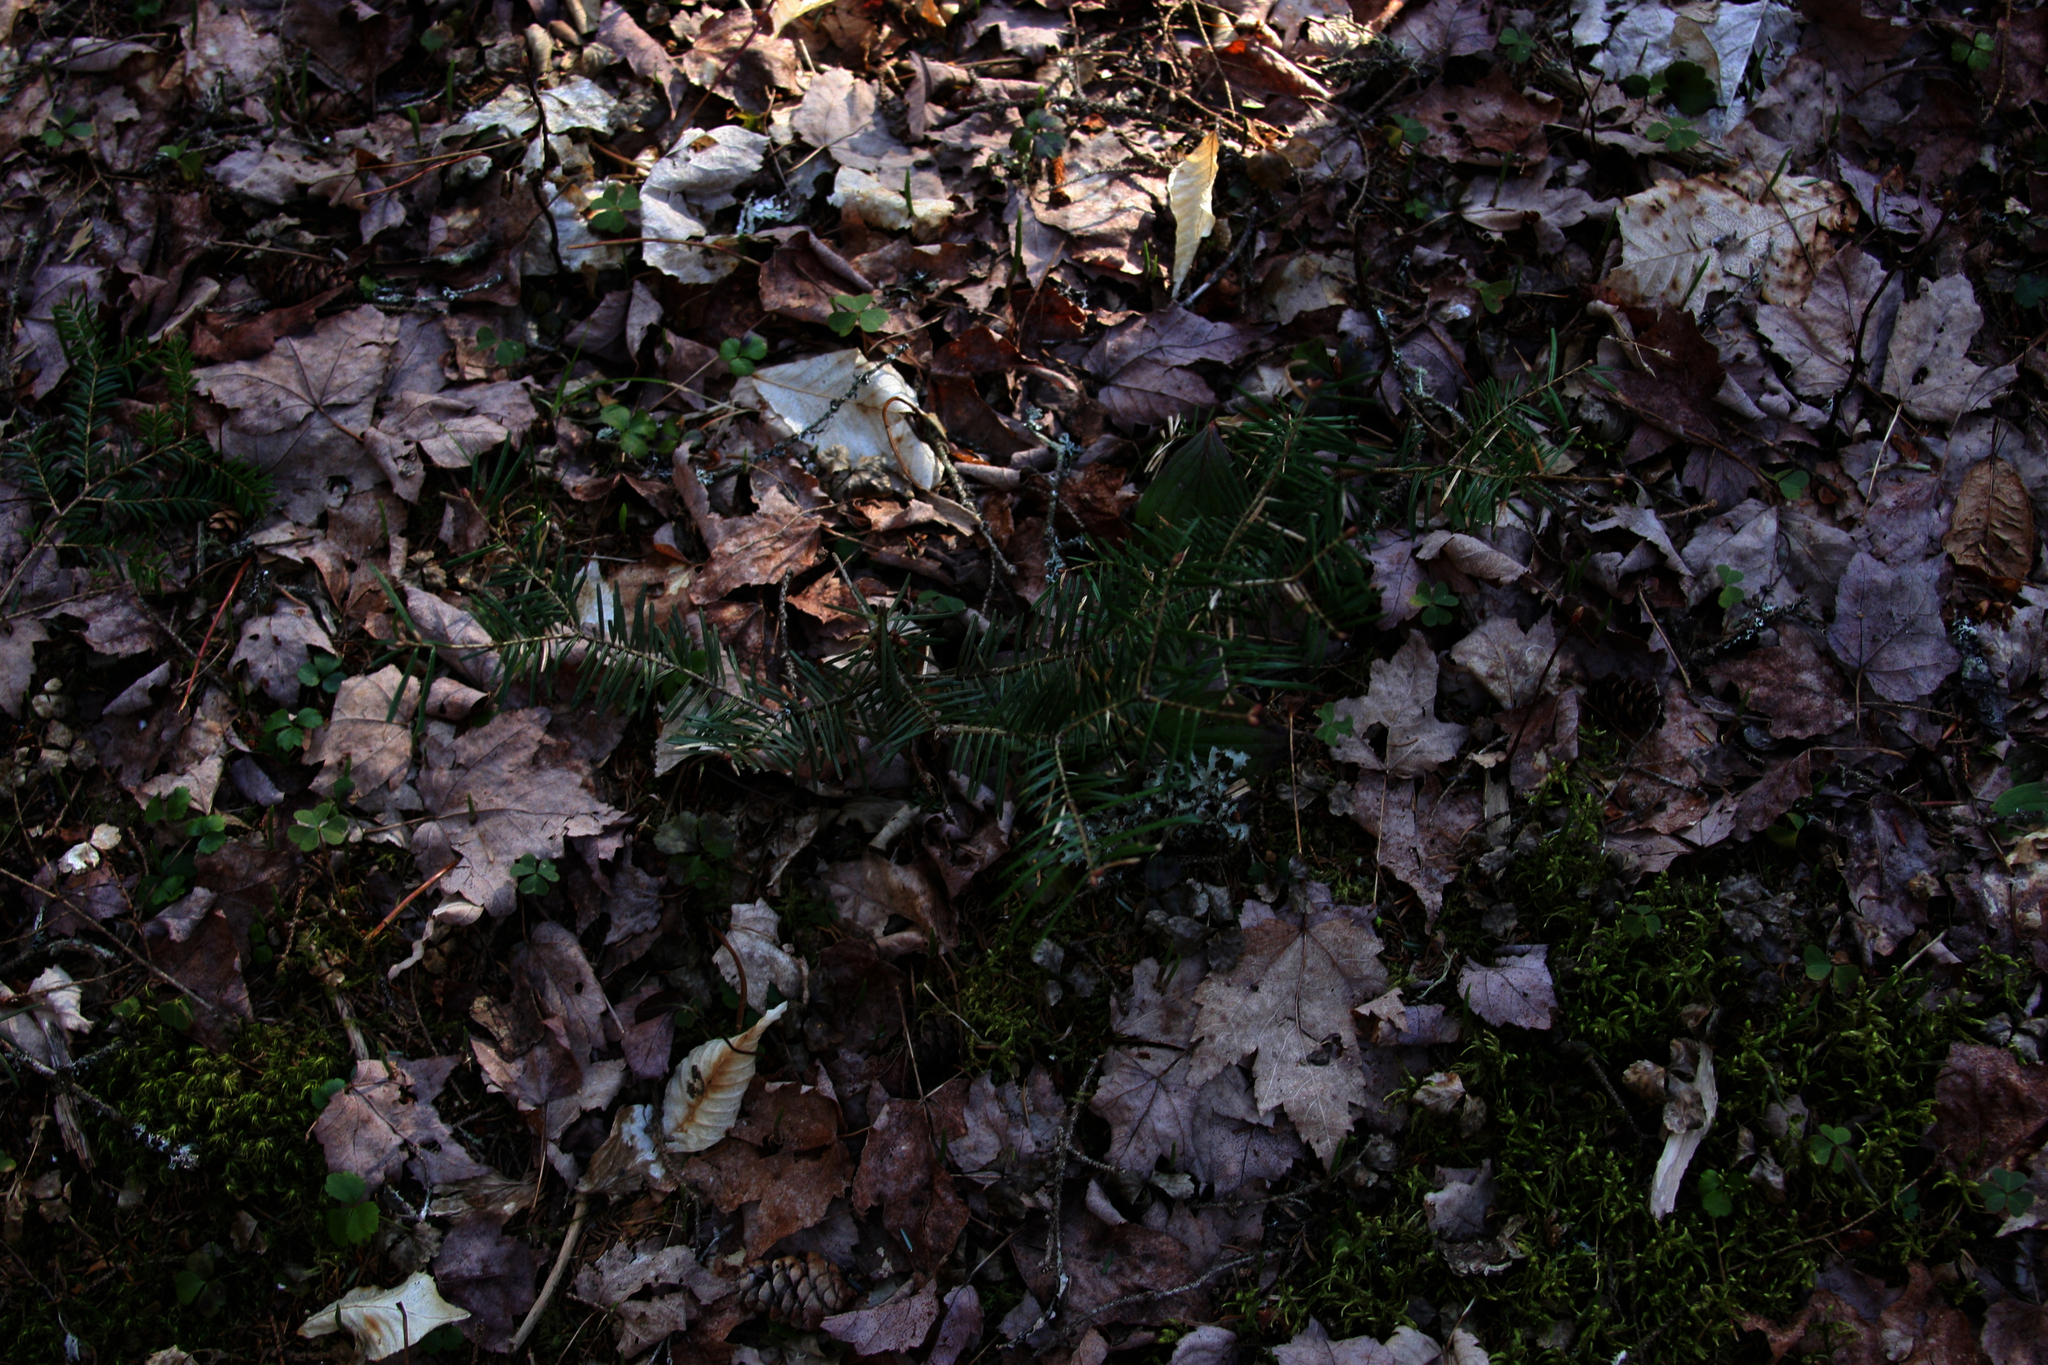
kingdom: Plantae
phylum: Tracheophyta
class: Pinopsida
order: Pinales
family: Pinaceae
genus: Abies
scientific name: Abies balsamea
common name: Balsam fir
